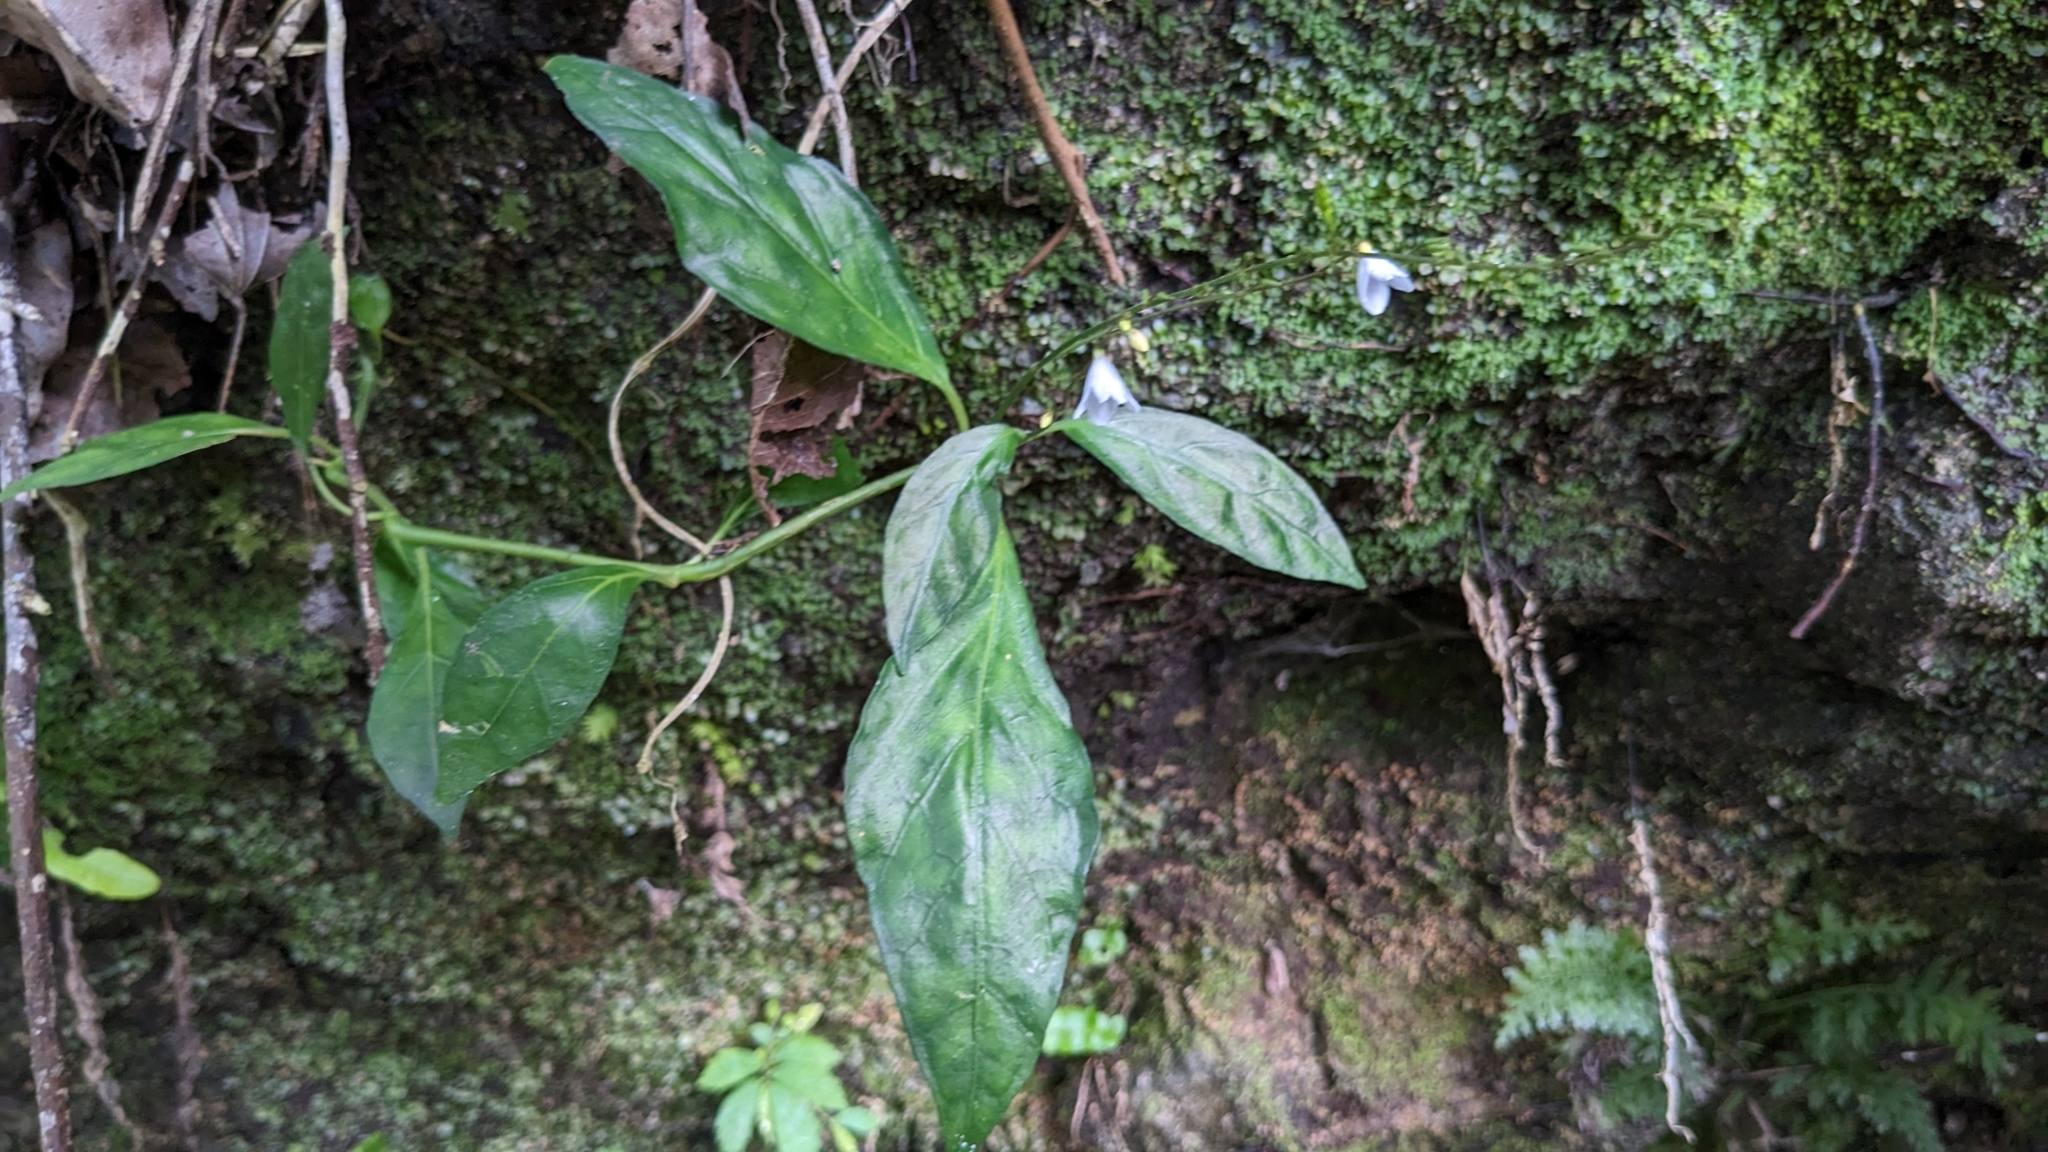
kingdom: Plantae
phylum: Tracheophyta
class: Magnoliopsida
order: Lamiales
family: Acanthaceae
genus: Codonacanthus
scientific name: Codonacanthus pauciflorus
